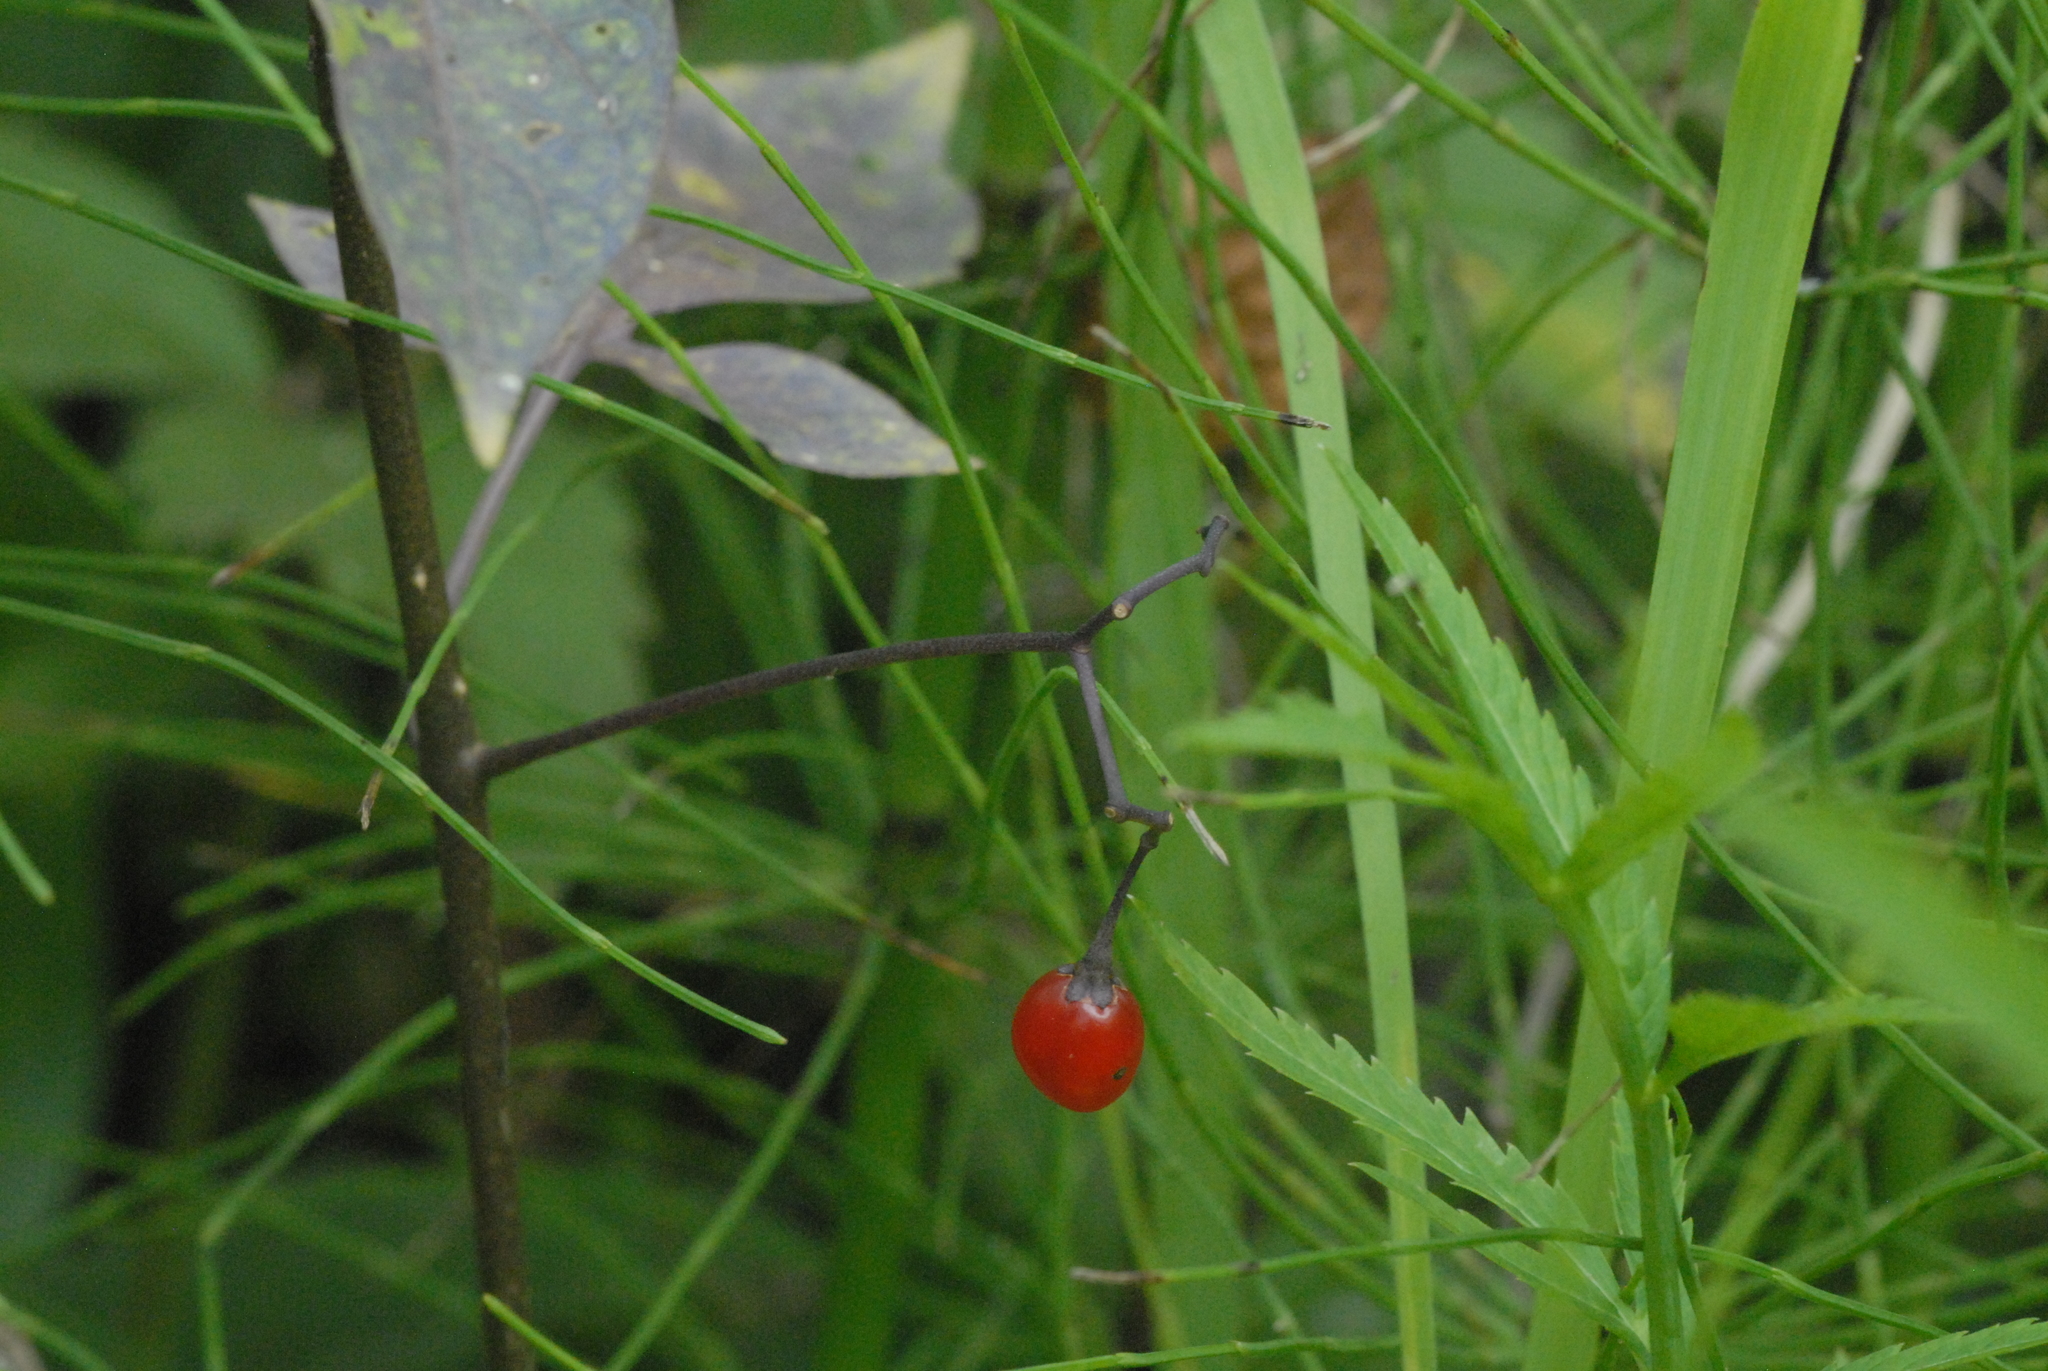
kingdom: Plantae
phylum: Tracheophyta
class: Magnoliopsida
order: Solanales
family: Solanaceae
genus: Solanum
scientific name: Solanum dulcamara
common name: Climbing nightshade
